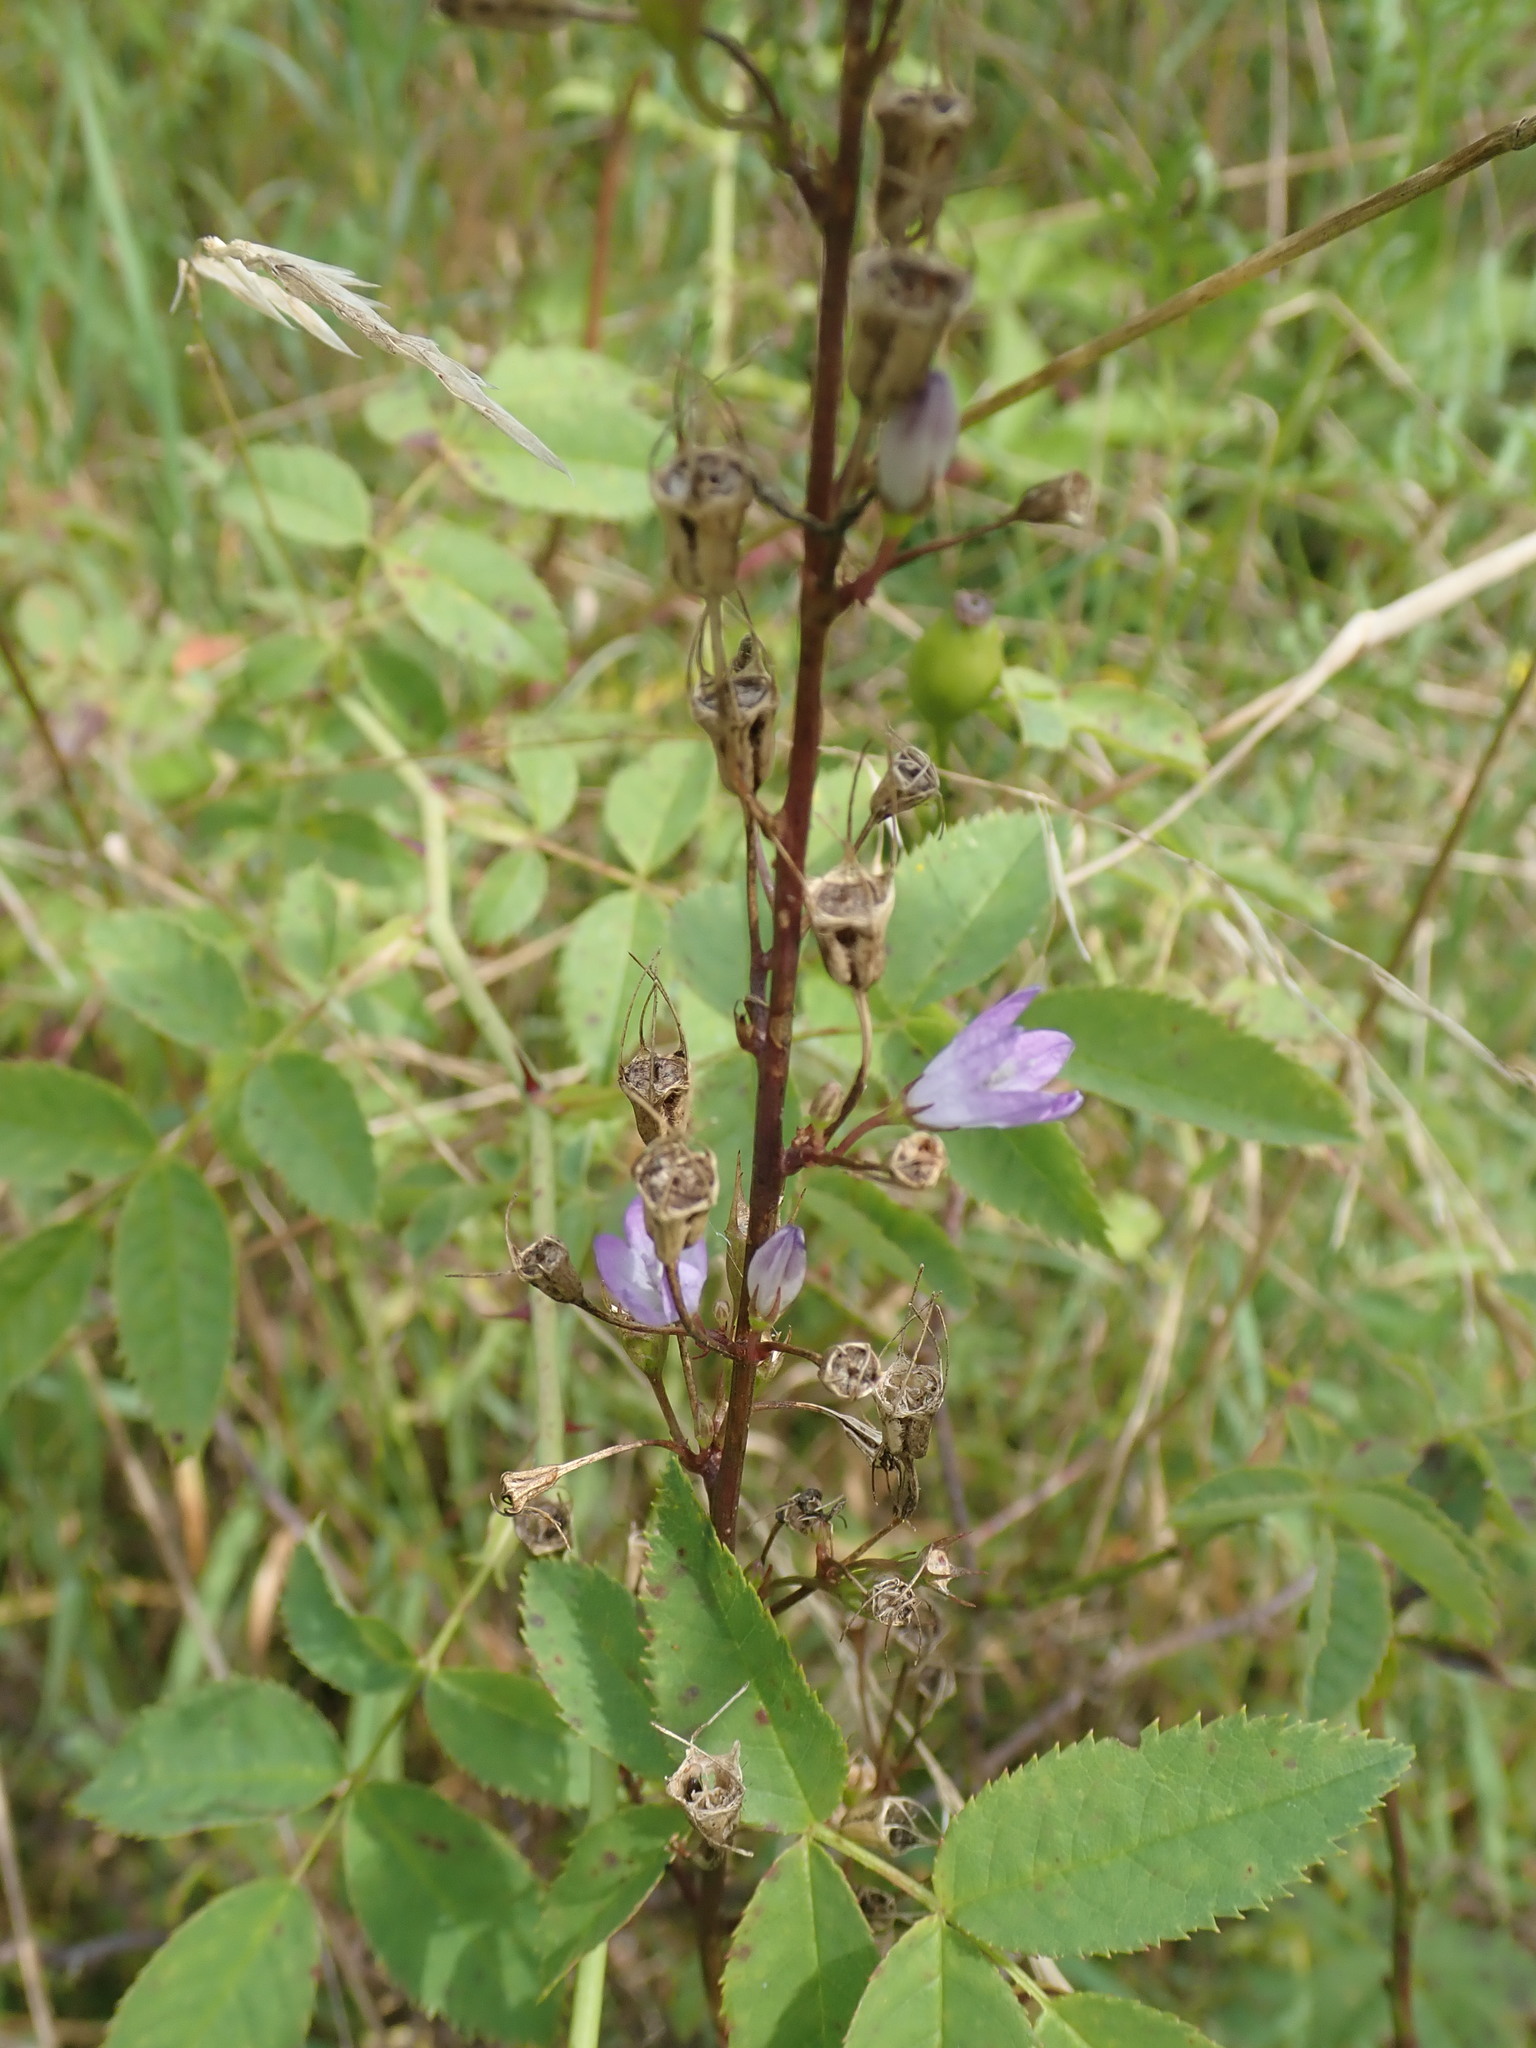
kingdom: Plantae
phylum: Tracheophyta
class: Magnoliopsida
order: Asterales
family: Campanulaceae
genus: Campanula
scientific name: Campanula rapunculus
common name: Rampion bellflower
